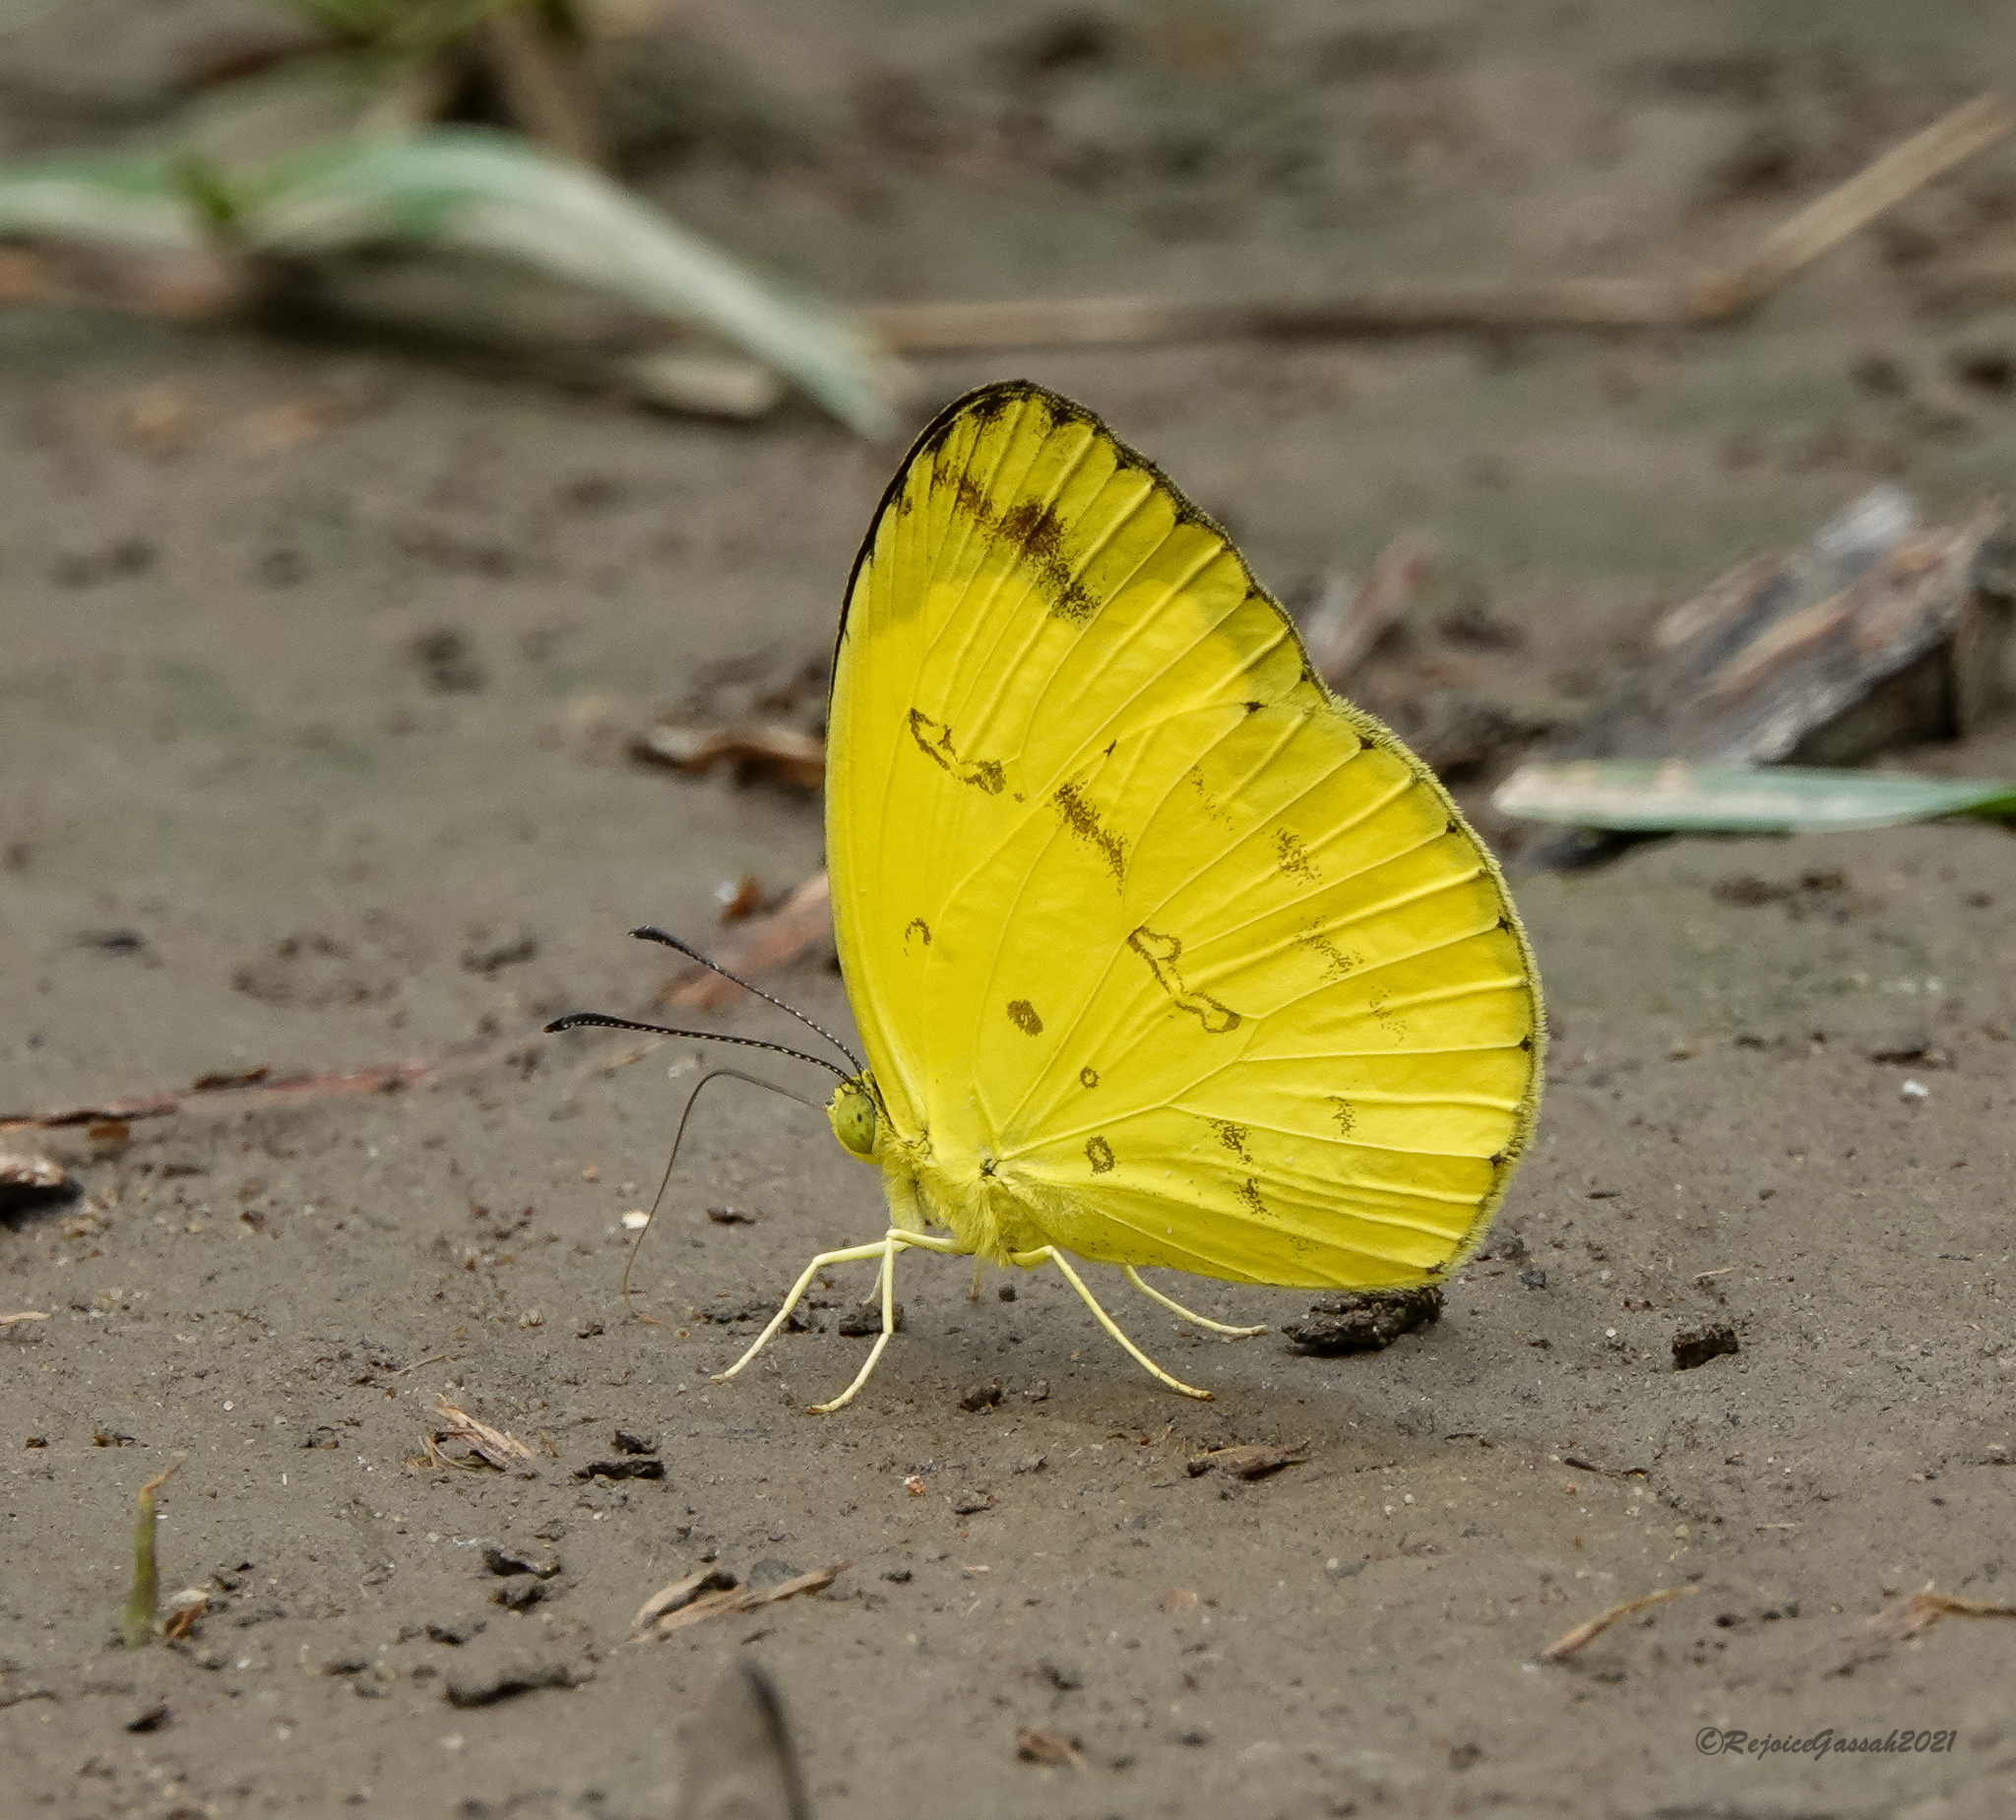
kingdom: Animalia
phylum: Arthropoda
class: Insecta
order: Lepidoptera
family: Pieridae
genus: Eurema
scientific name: Eurema andersoni
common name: One-spot yellow grass
